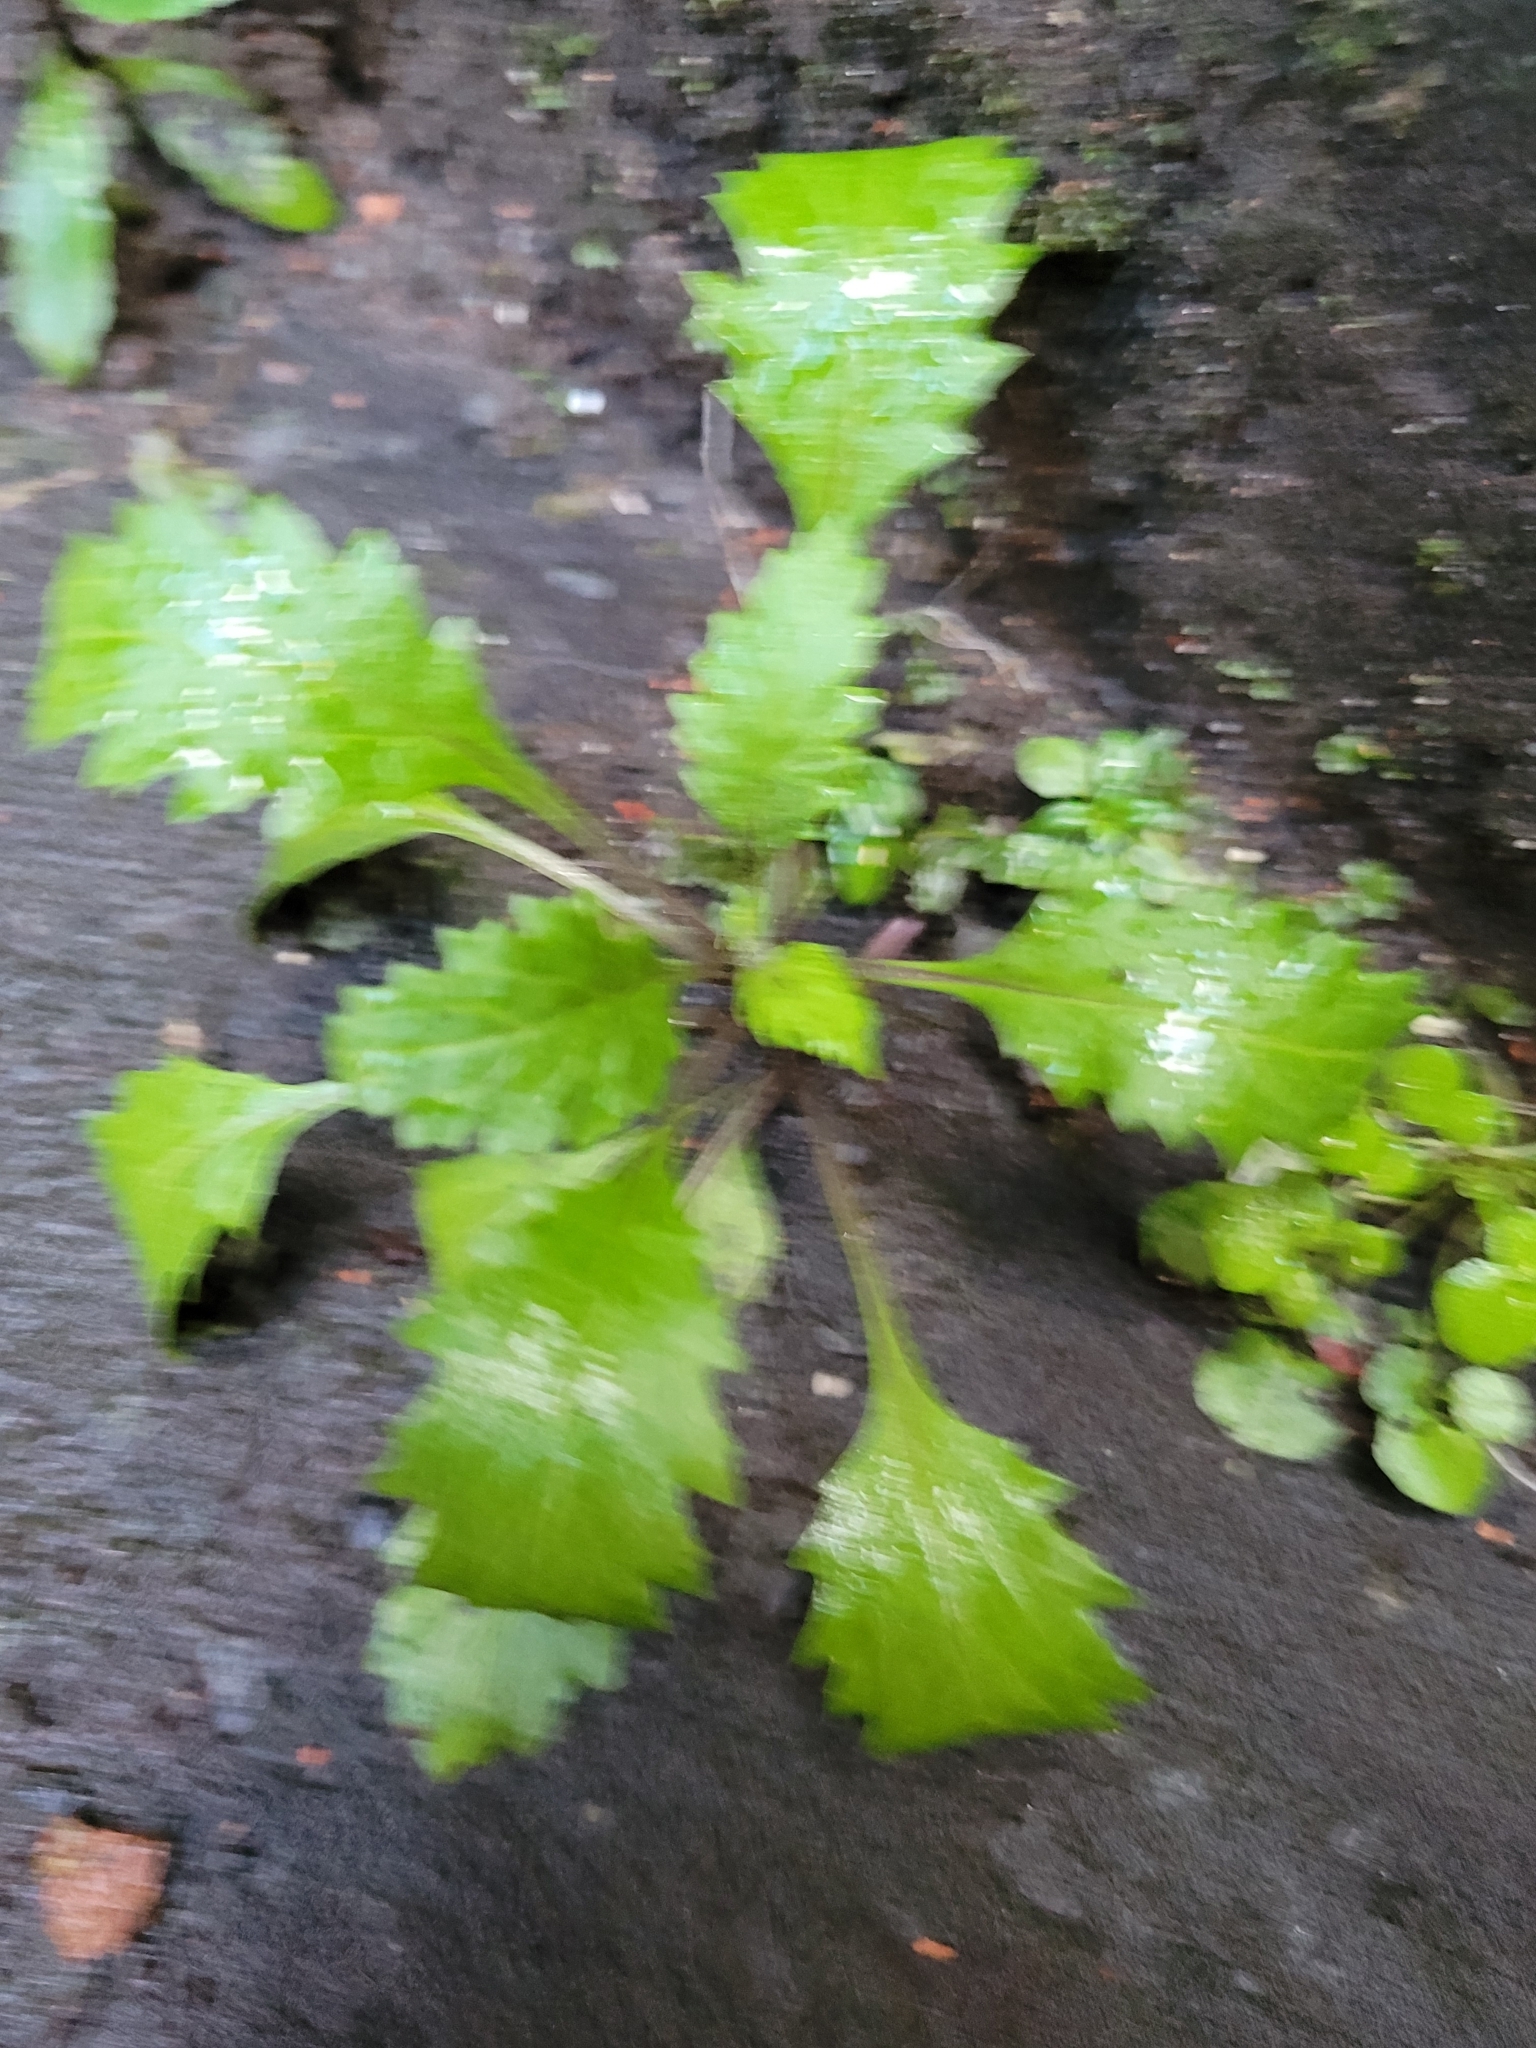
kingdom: Plantae
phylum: Tracheophyta
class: Magnoliopsida
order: Asterales
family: Asteraceae
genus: Senecio
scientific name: Senecio vulgaris
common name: Old-man-in-the-spring
